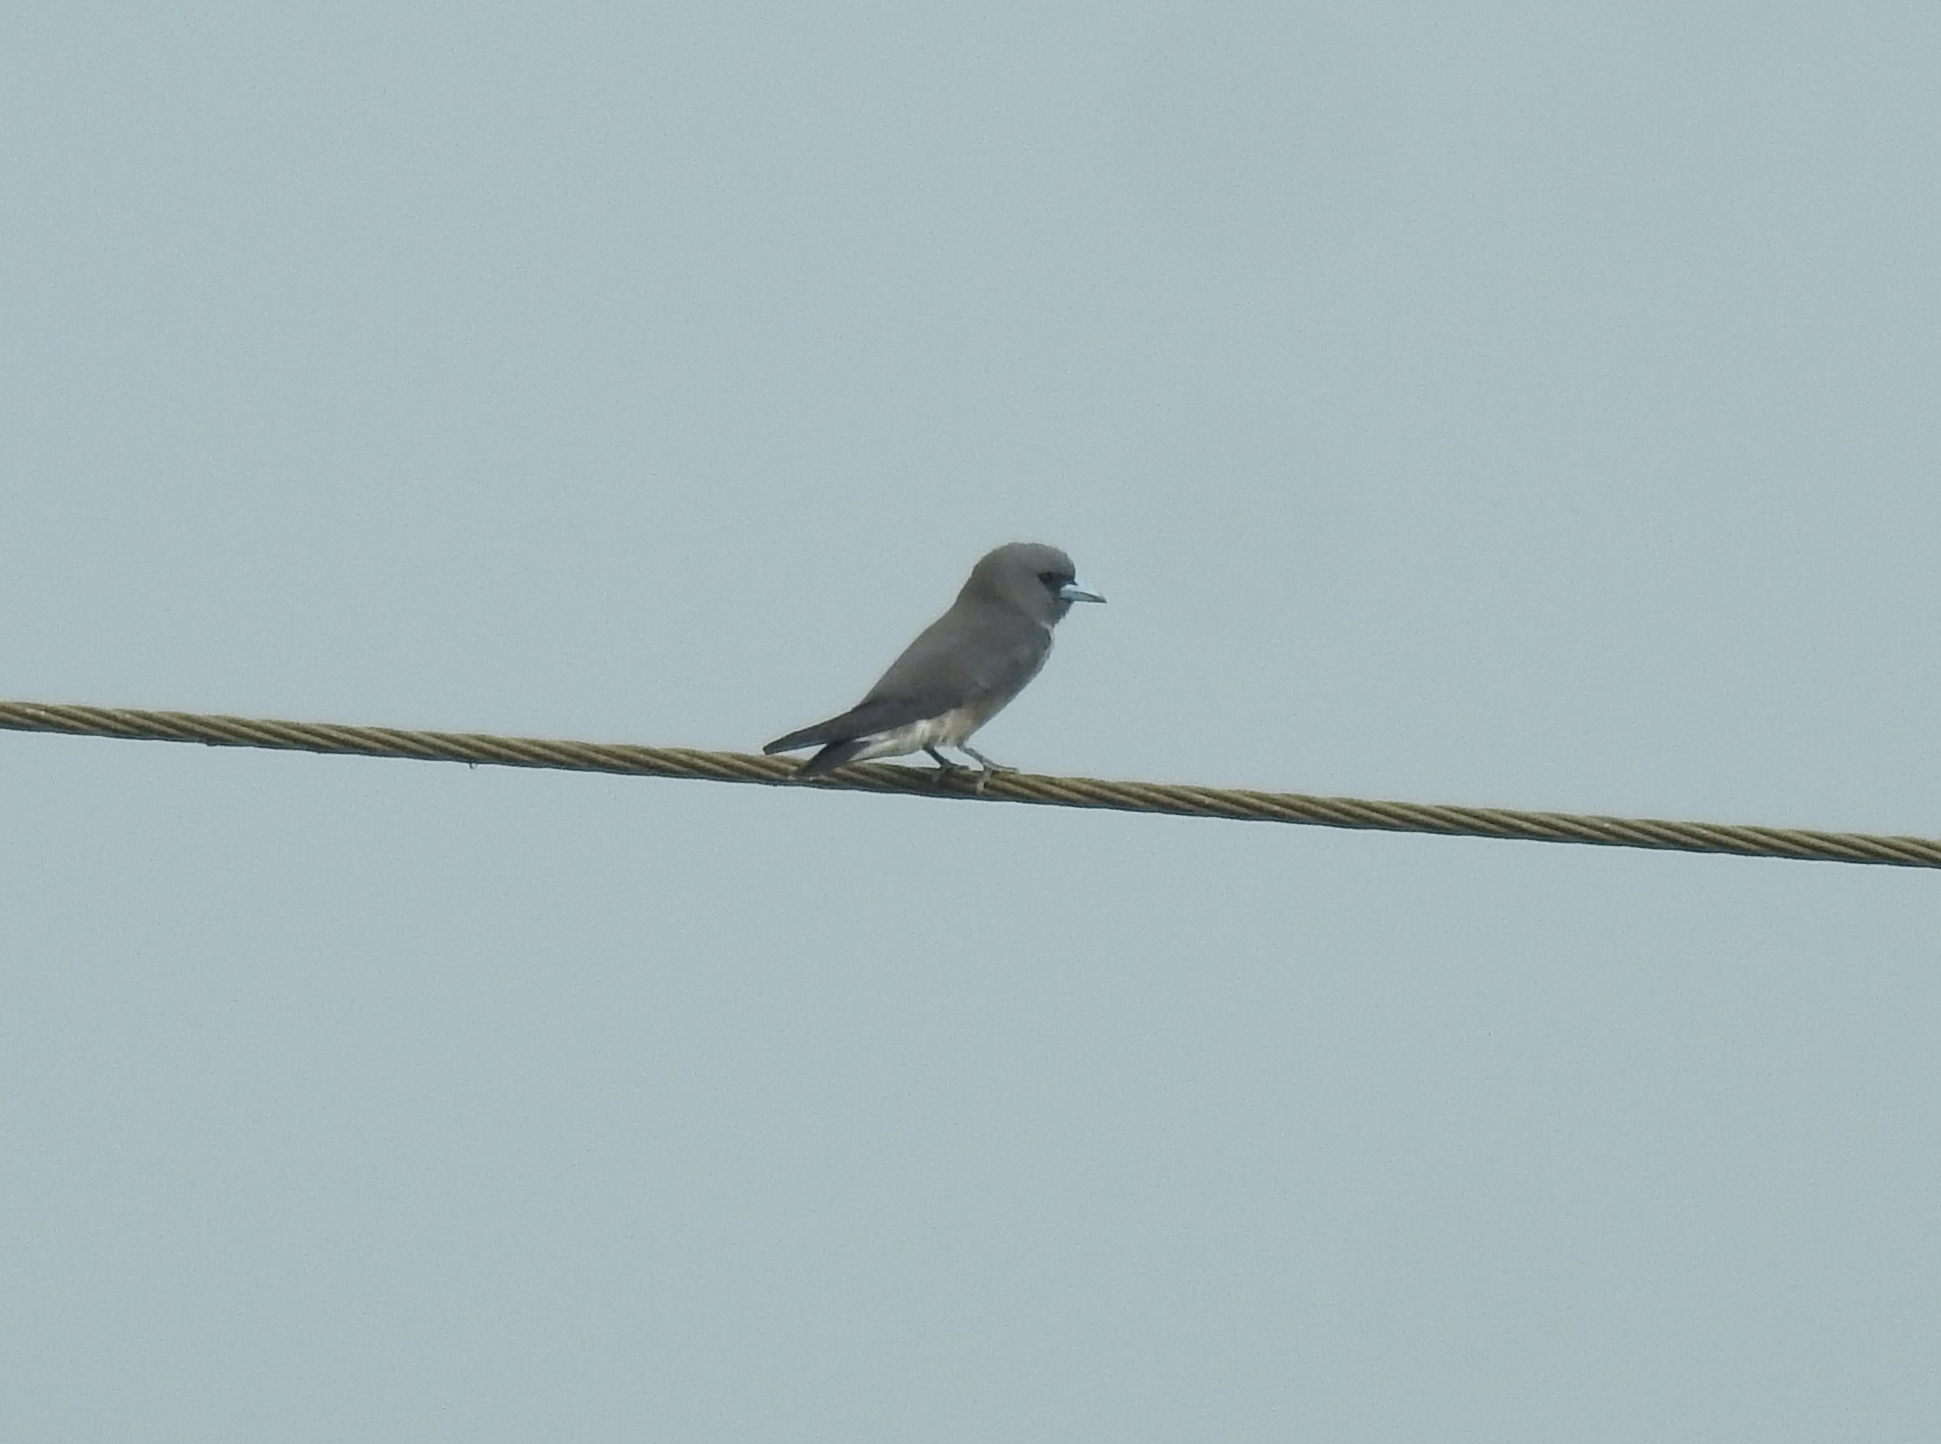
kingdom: Animalia
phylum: Chordata
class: Aves
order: Passeriformes
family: Artamidae
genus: Artamus
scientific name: Artamus fuscus
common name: Ashy woodswallow
